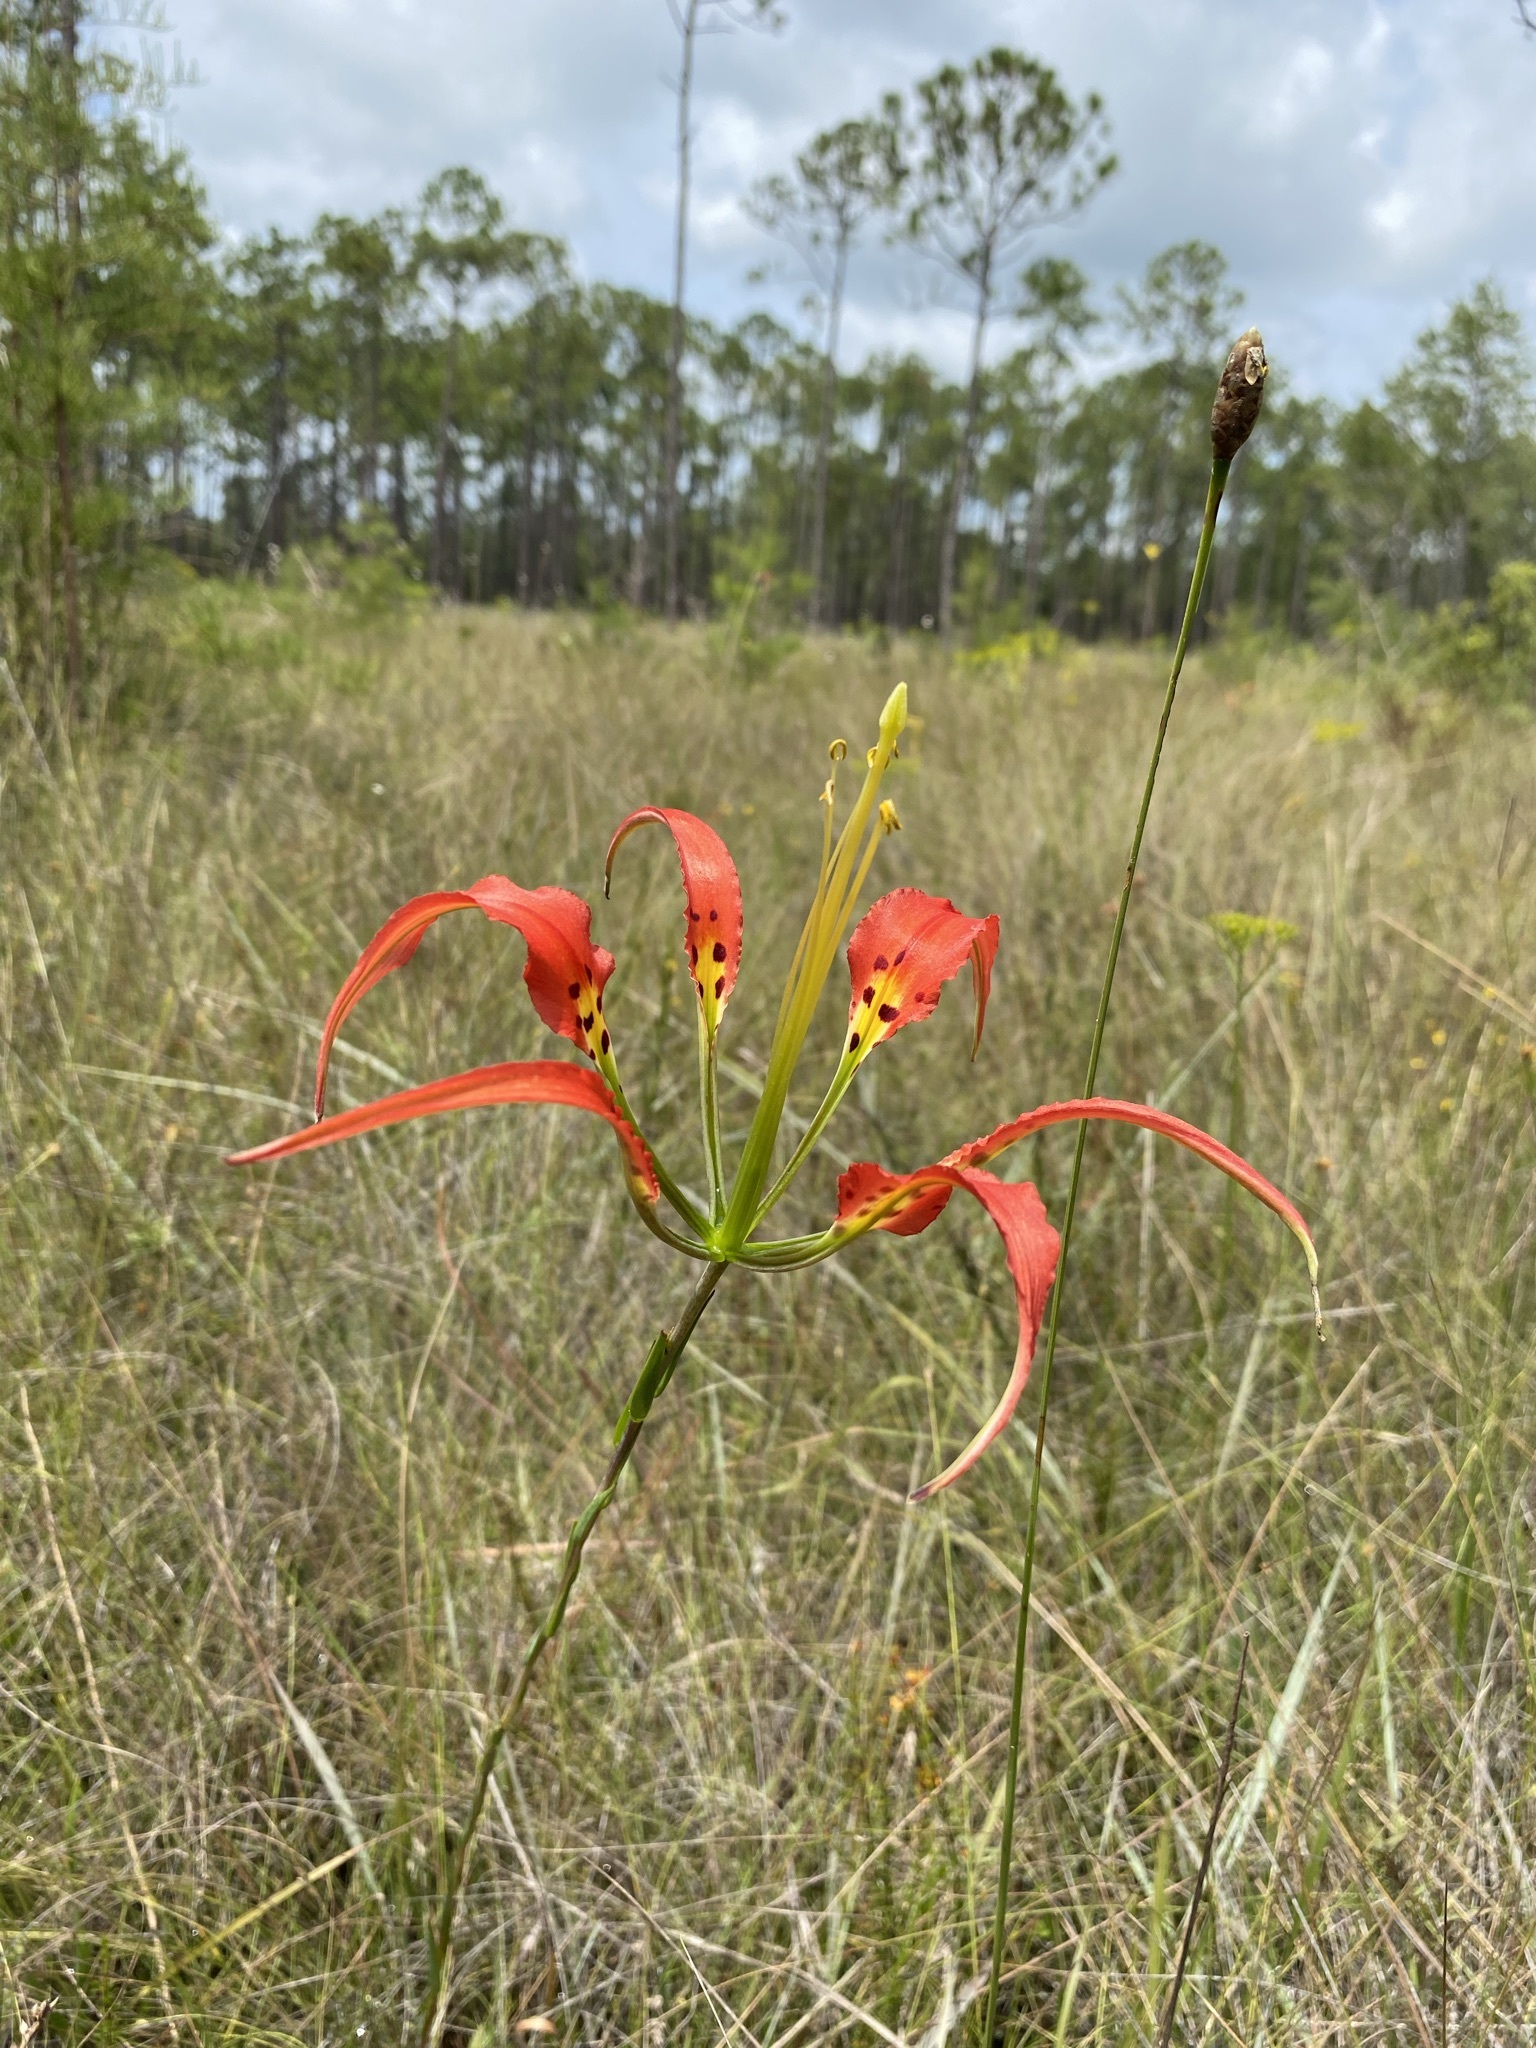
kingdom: Plantae
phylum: Tracheophyta
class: Liliopsida
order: Liliales
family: Liliaceae
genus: Lilium
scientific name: Lilium catesbaei
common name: Catesby's lily
